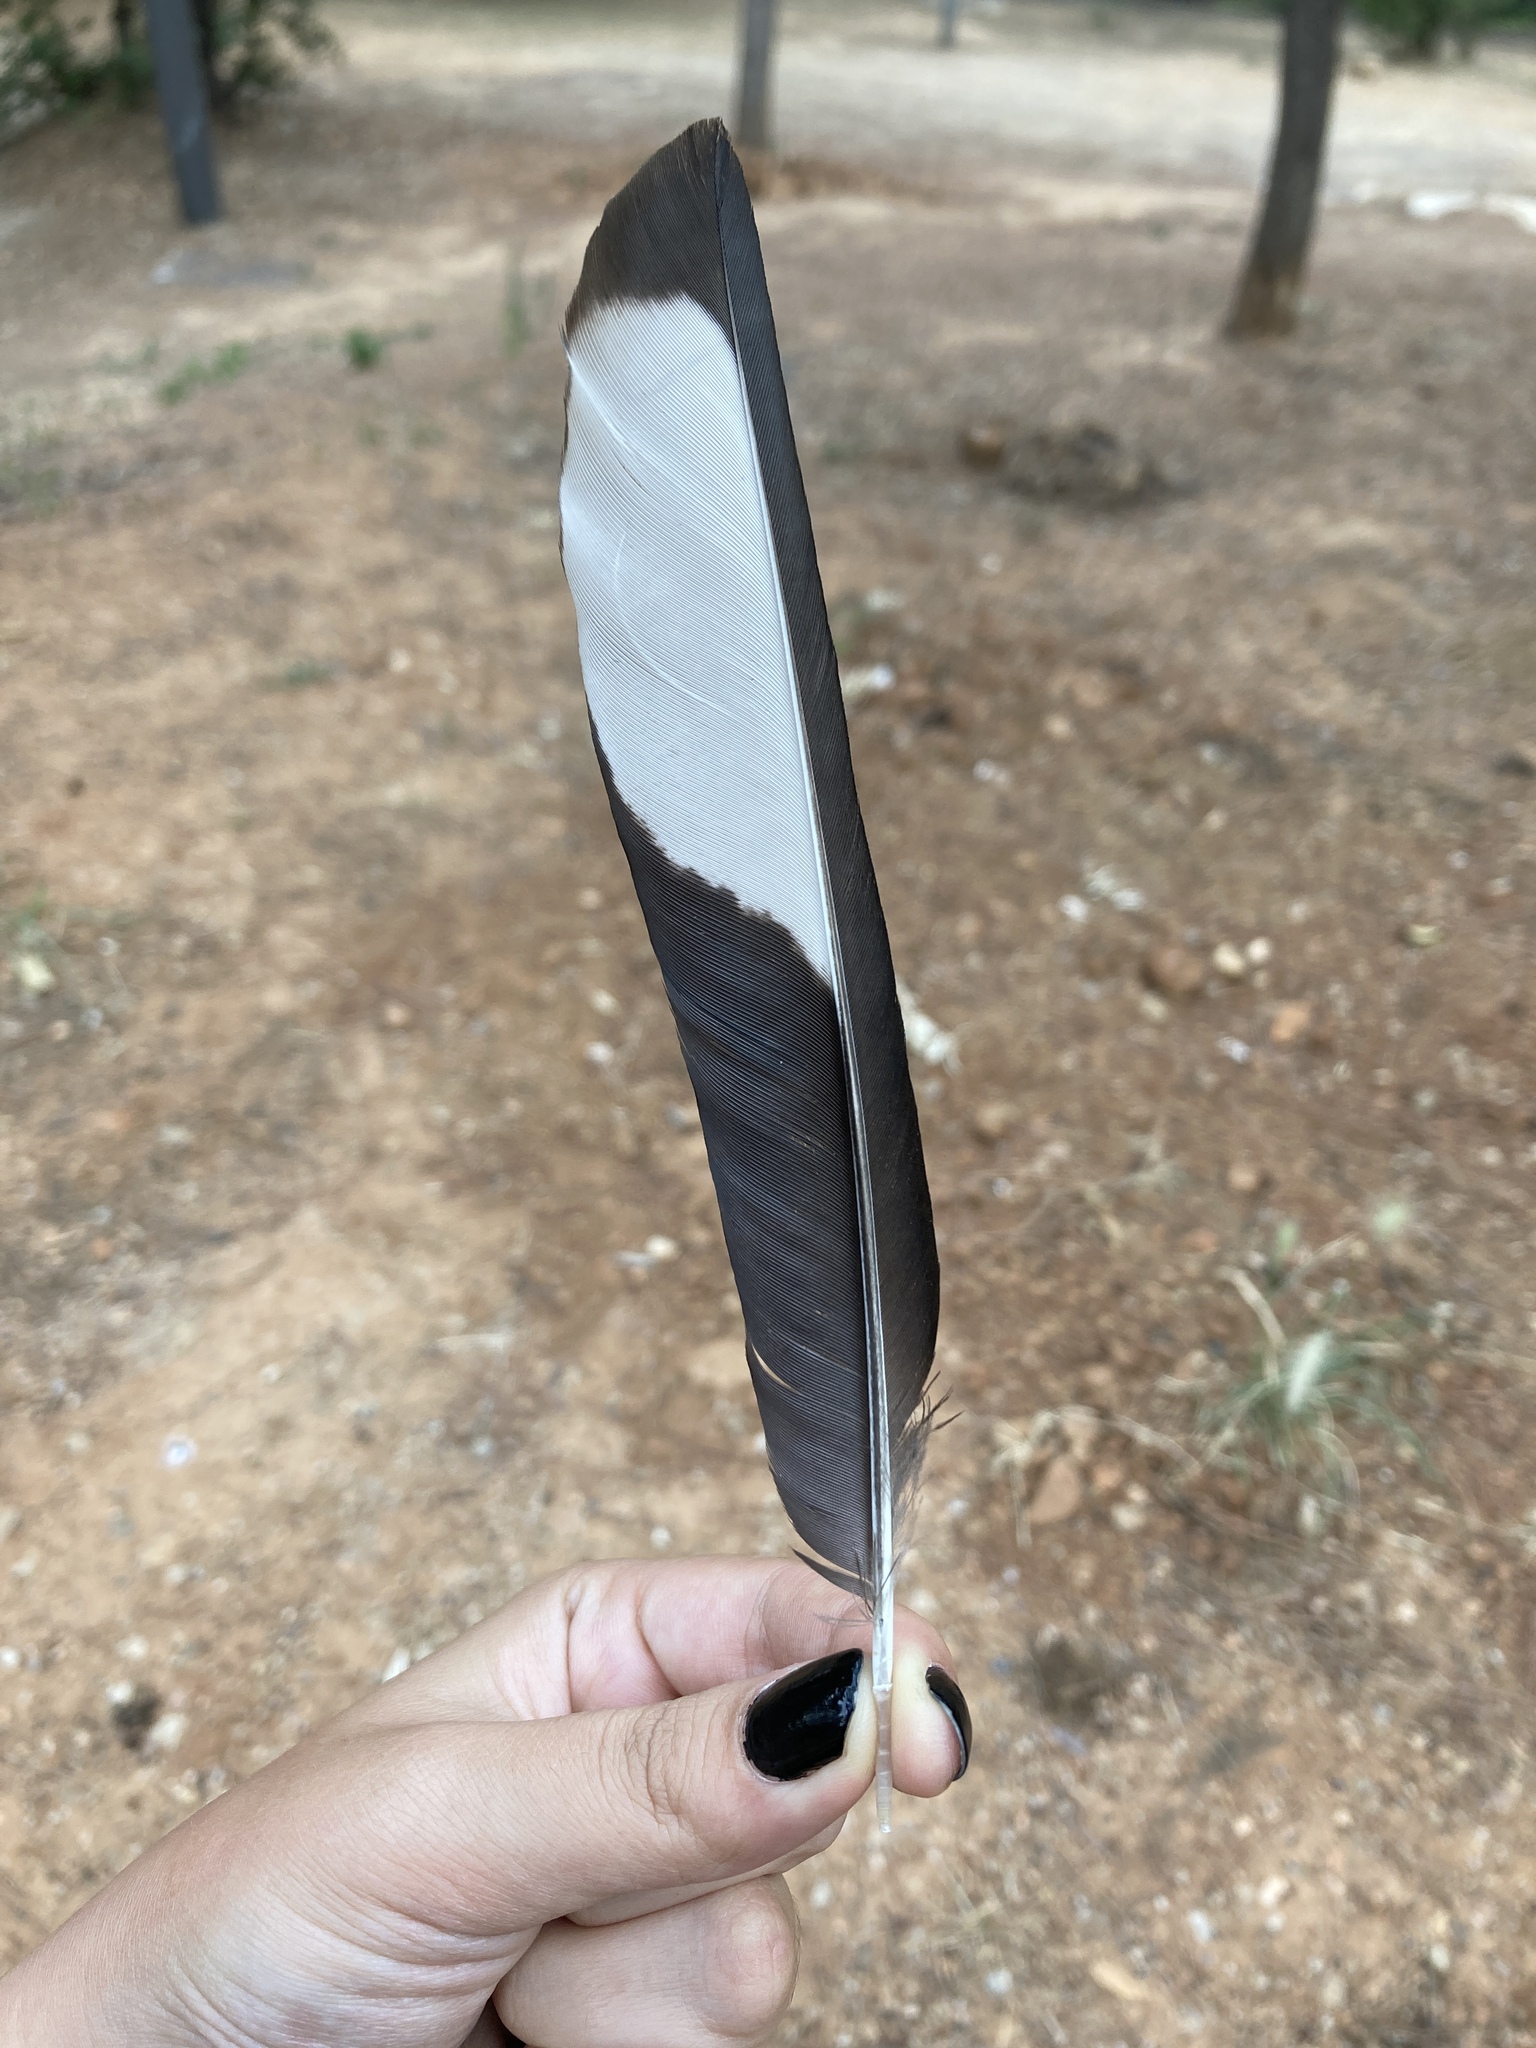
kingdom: Animalia
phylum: Chordata
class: Aves
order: Passeriformes
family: Corvidae
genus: Pica
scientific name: Pica pica
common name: Eurasian magpie
